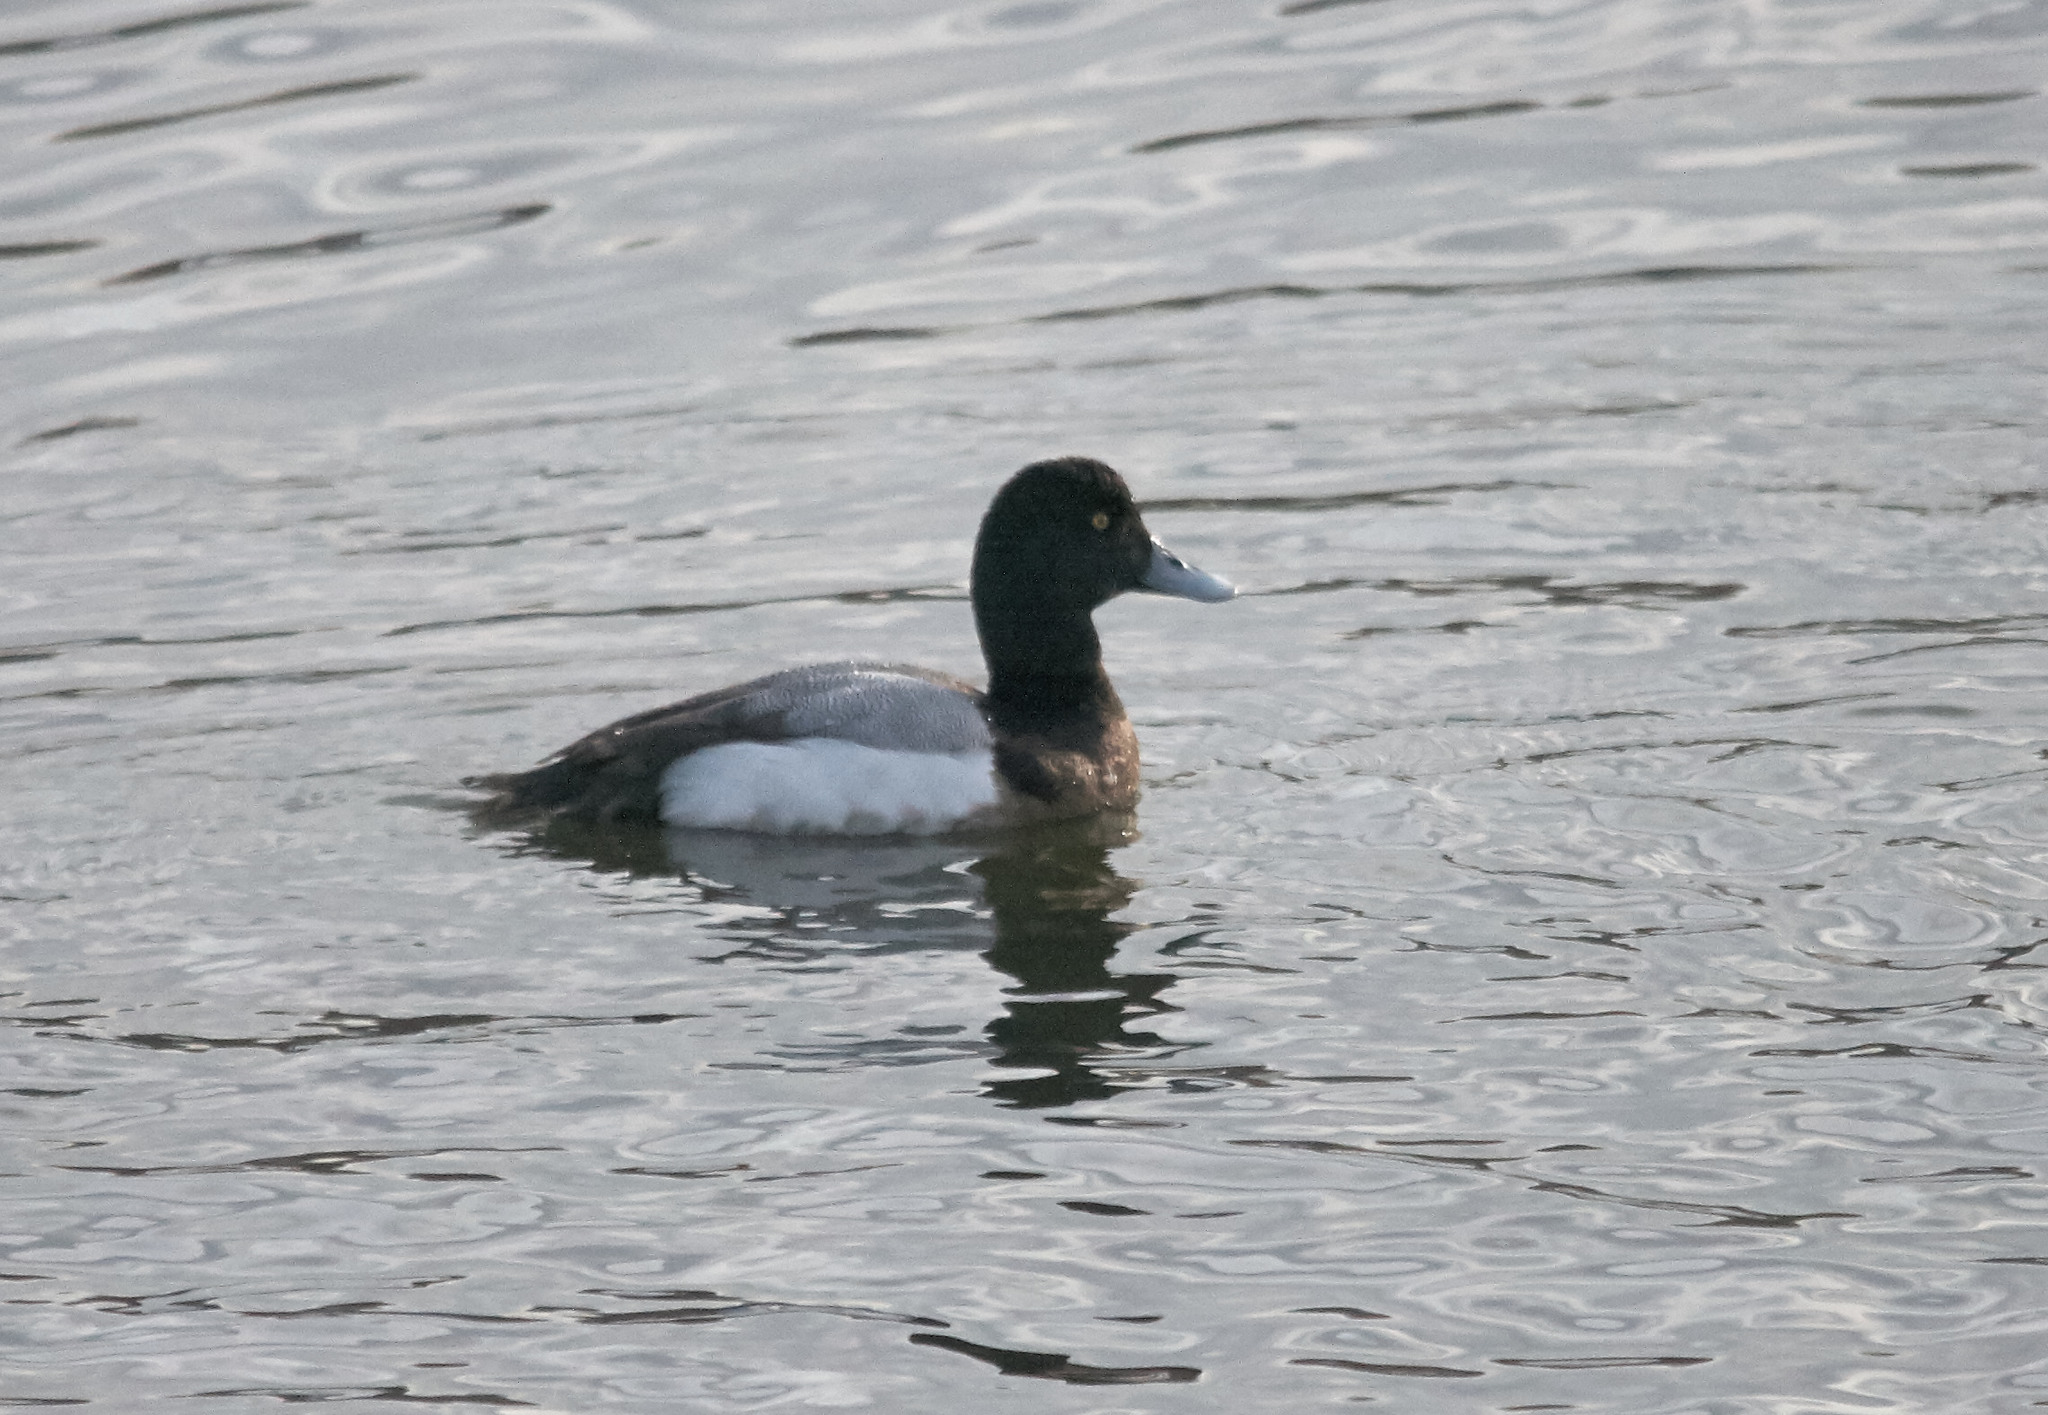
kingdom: Animalia
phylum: Chordata
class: Aves
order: Anseriformes
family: Anatidae
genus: Aythya
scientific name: Aythya marila
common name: Greater scaup
